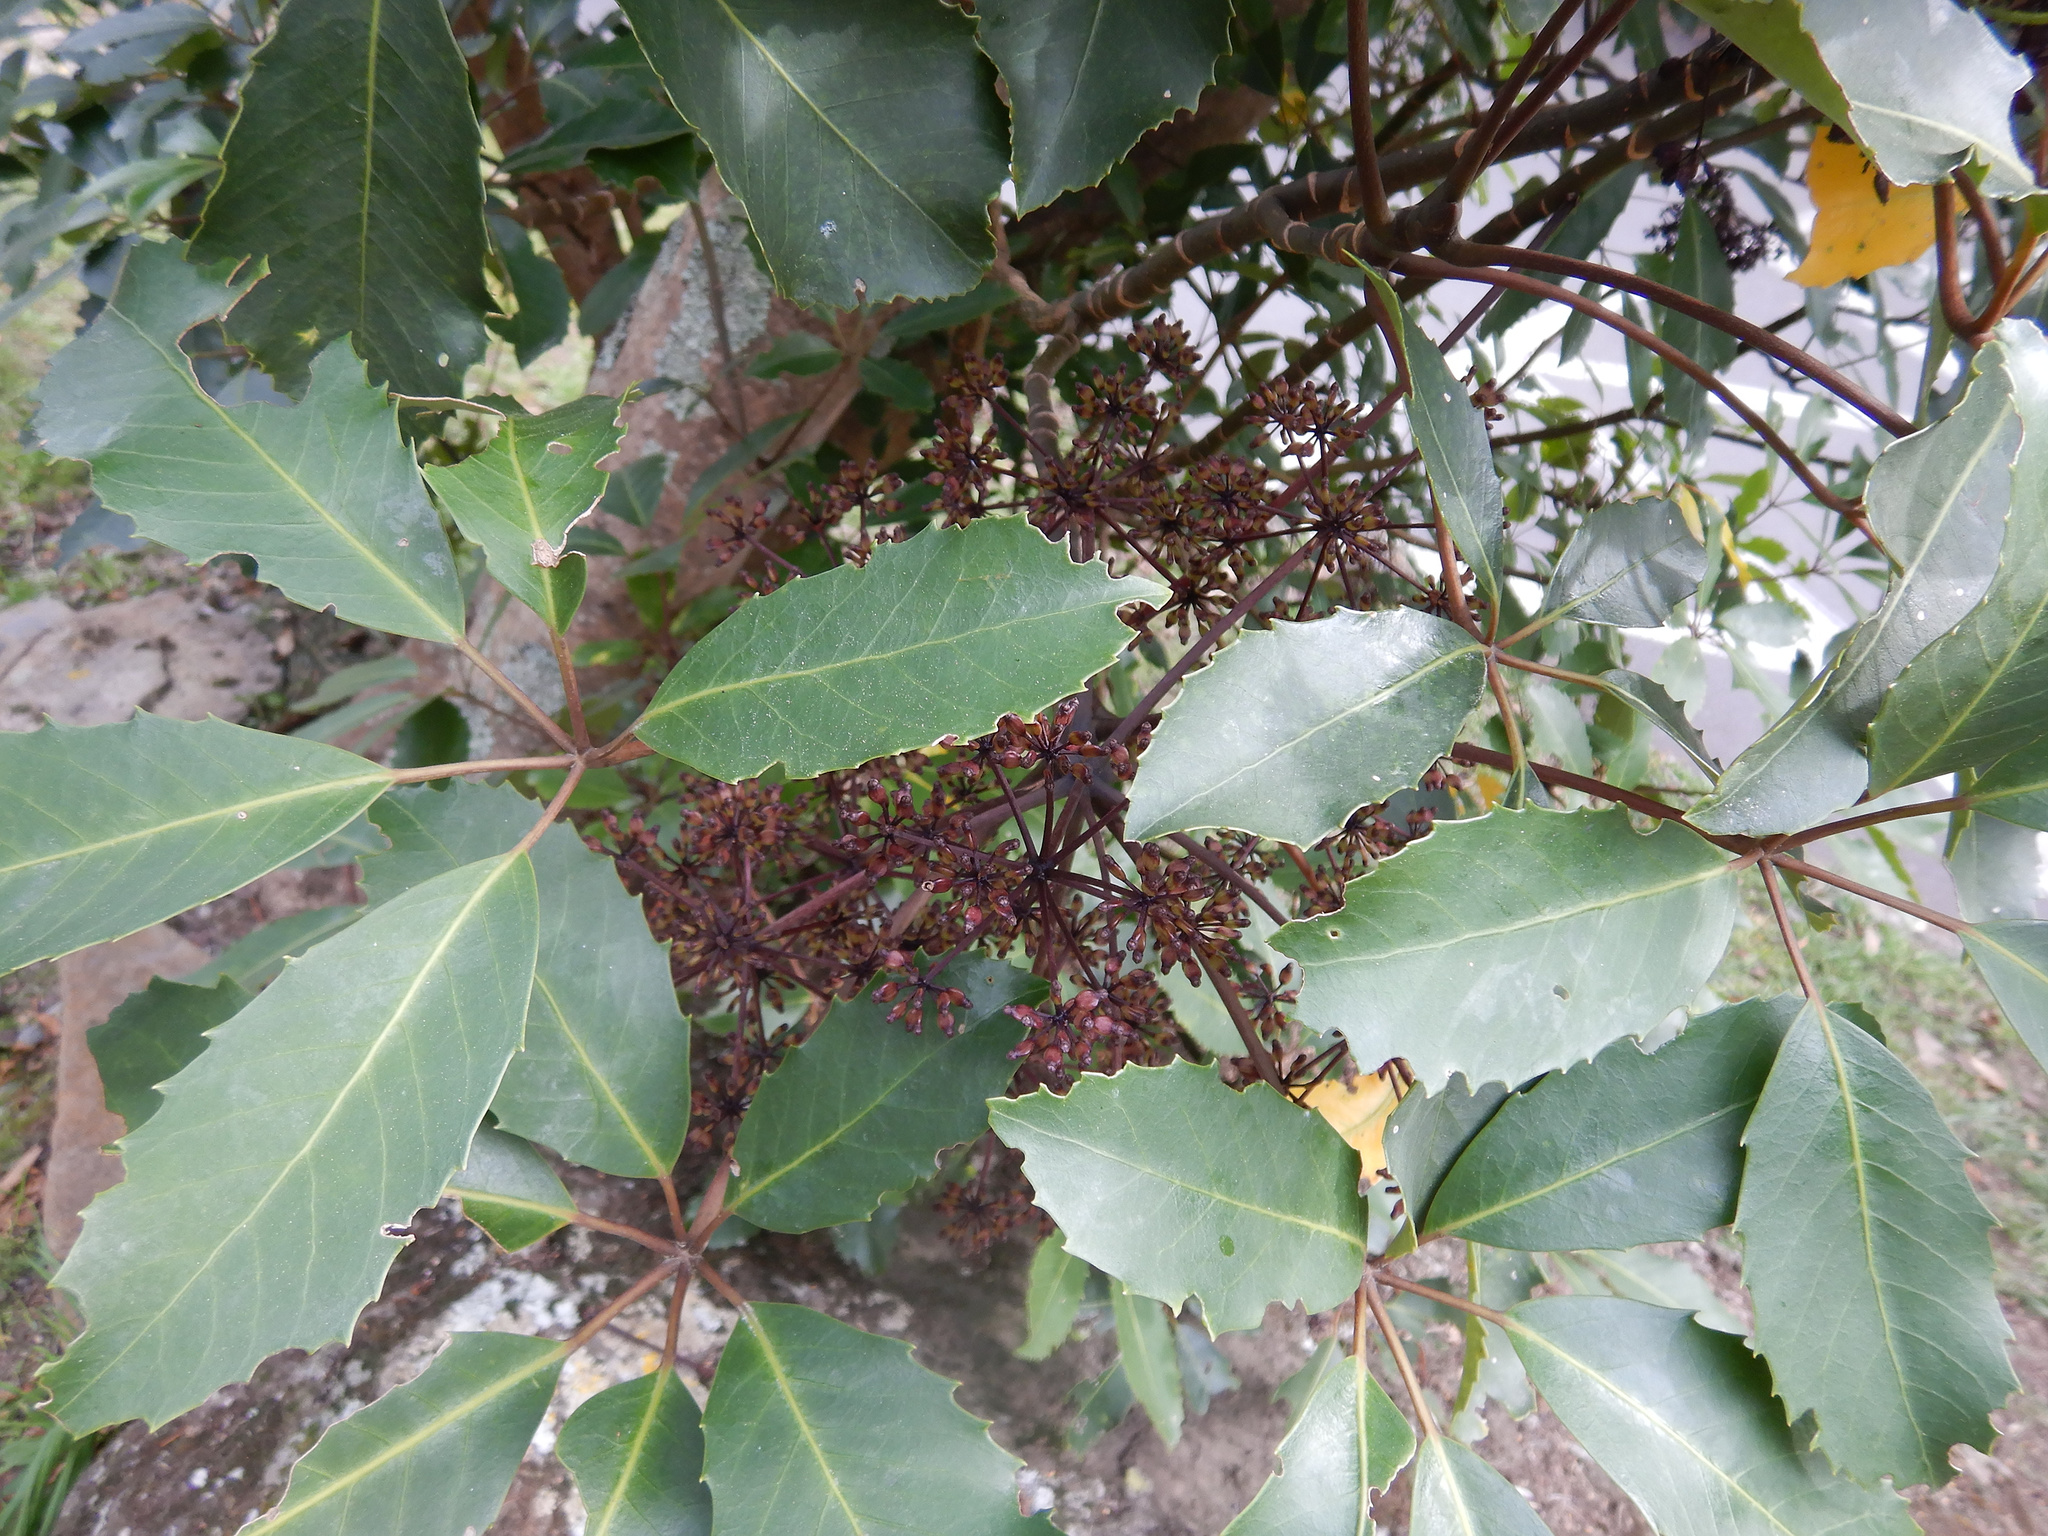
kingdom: Plantae
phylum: Tracheophyta
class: Magnoliopsida
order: Apiales
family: Araliaceae
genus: Neopanax
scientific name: Neopanax arboreus
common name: Five-fingers
